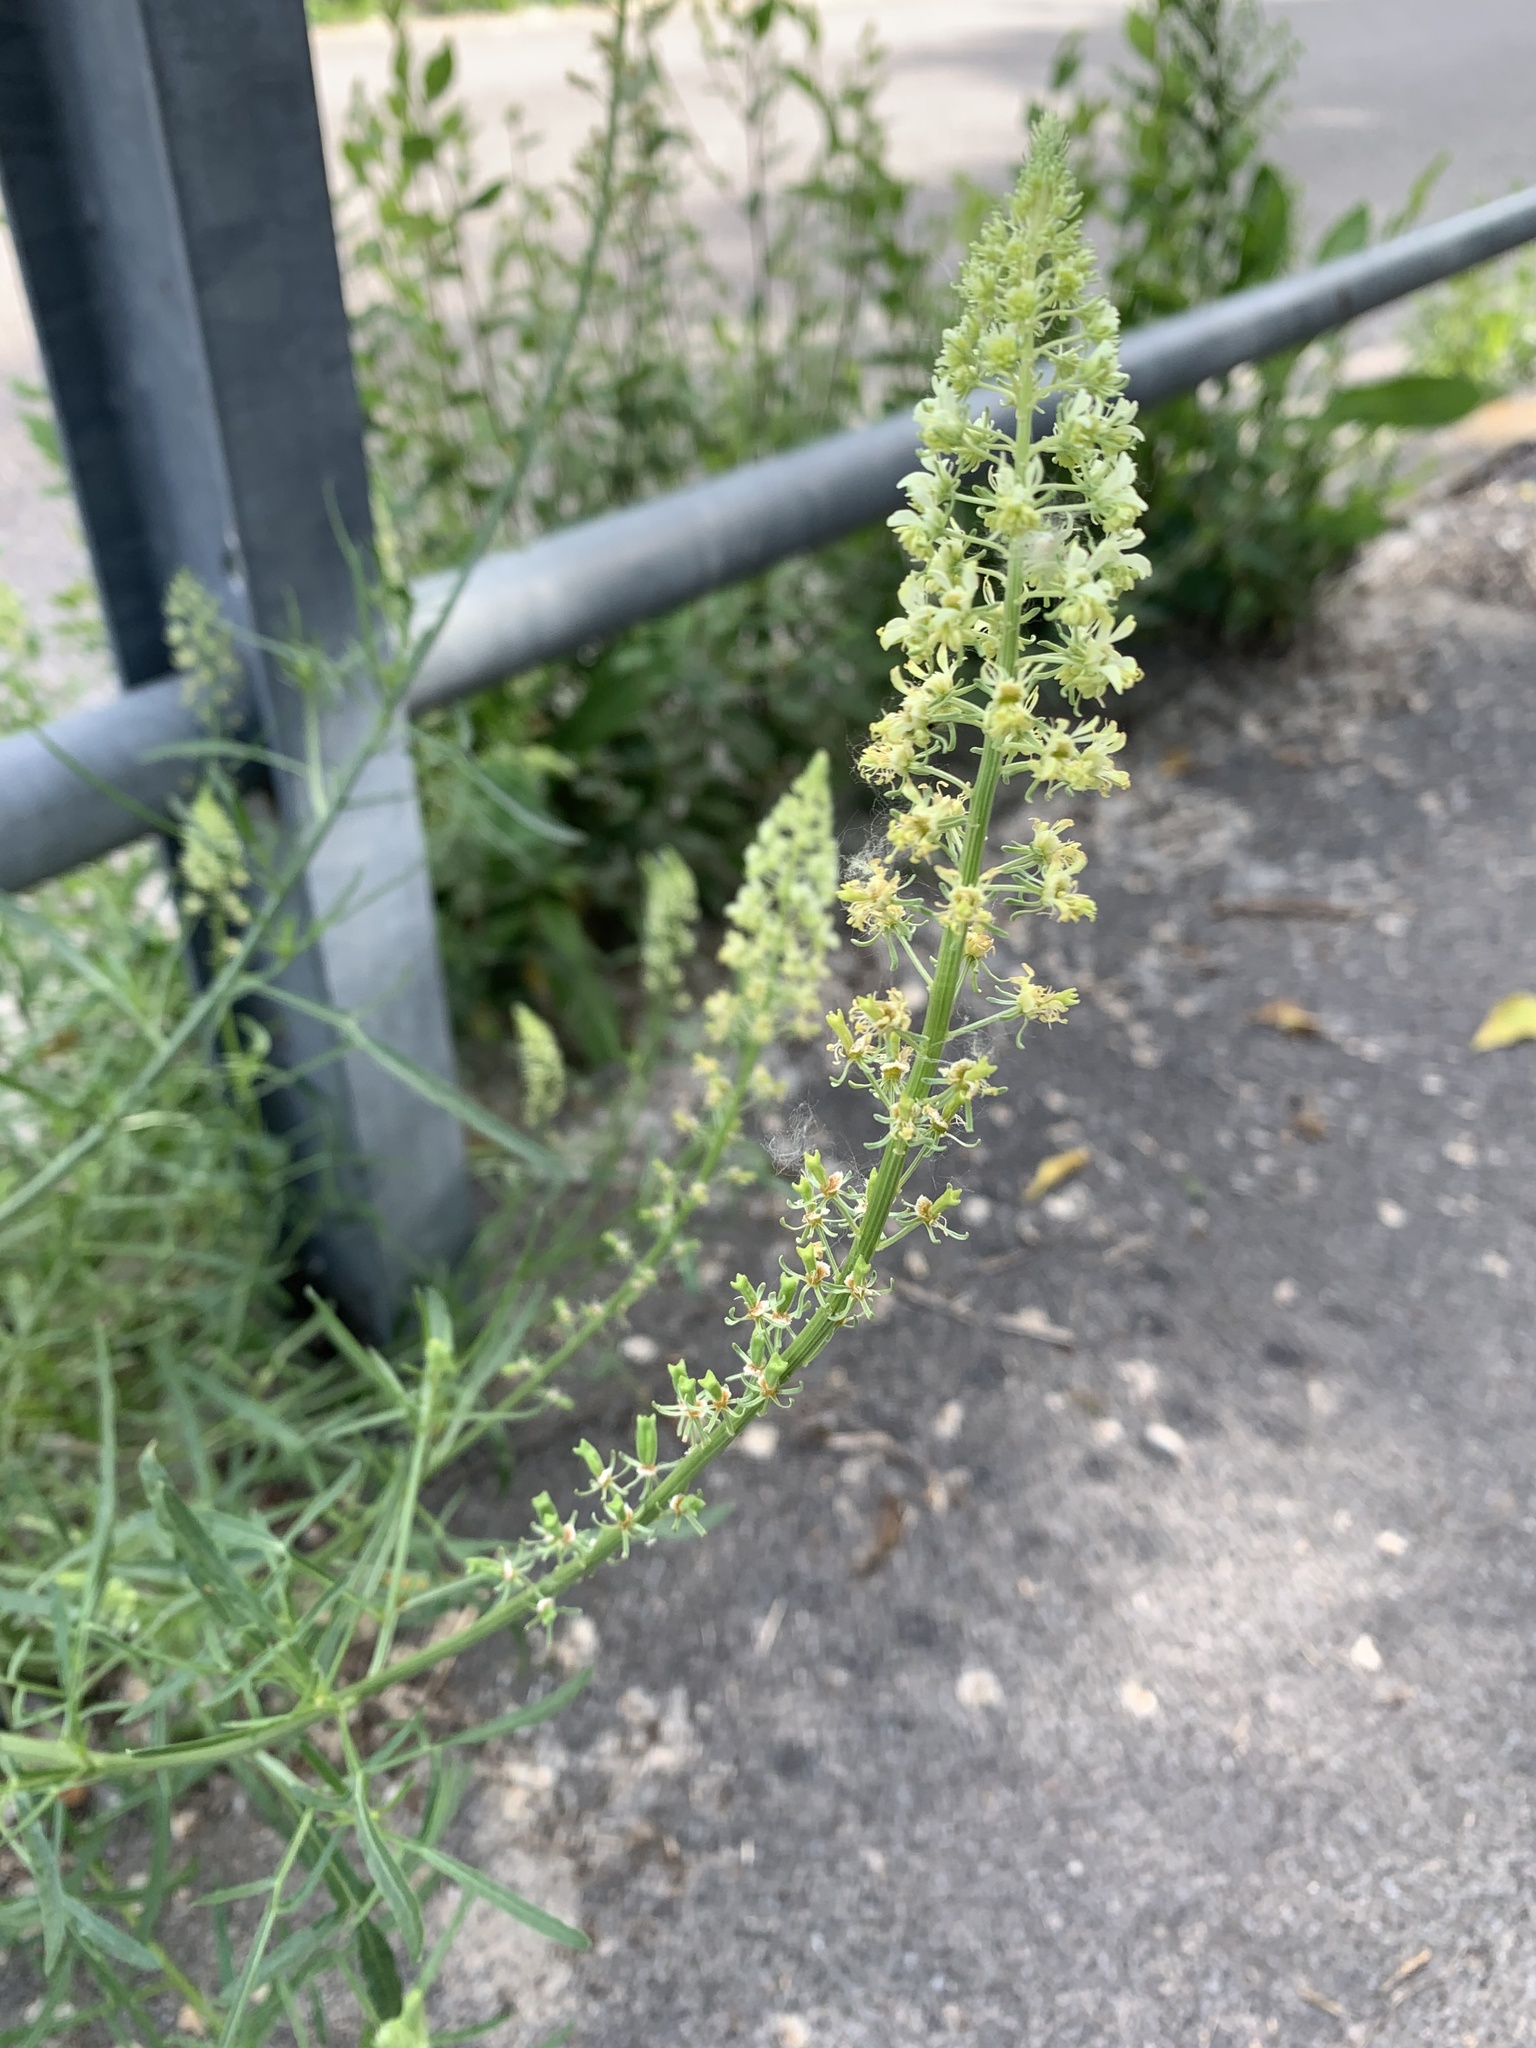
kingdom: Plantae
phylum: Tracheophyta
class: Magnoliopsida
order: Brassicales
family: Resedaceae
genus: Reseda
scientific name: Reseda lutea
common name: Wild mignonette
